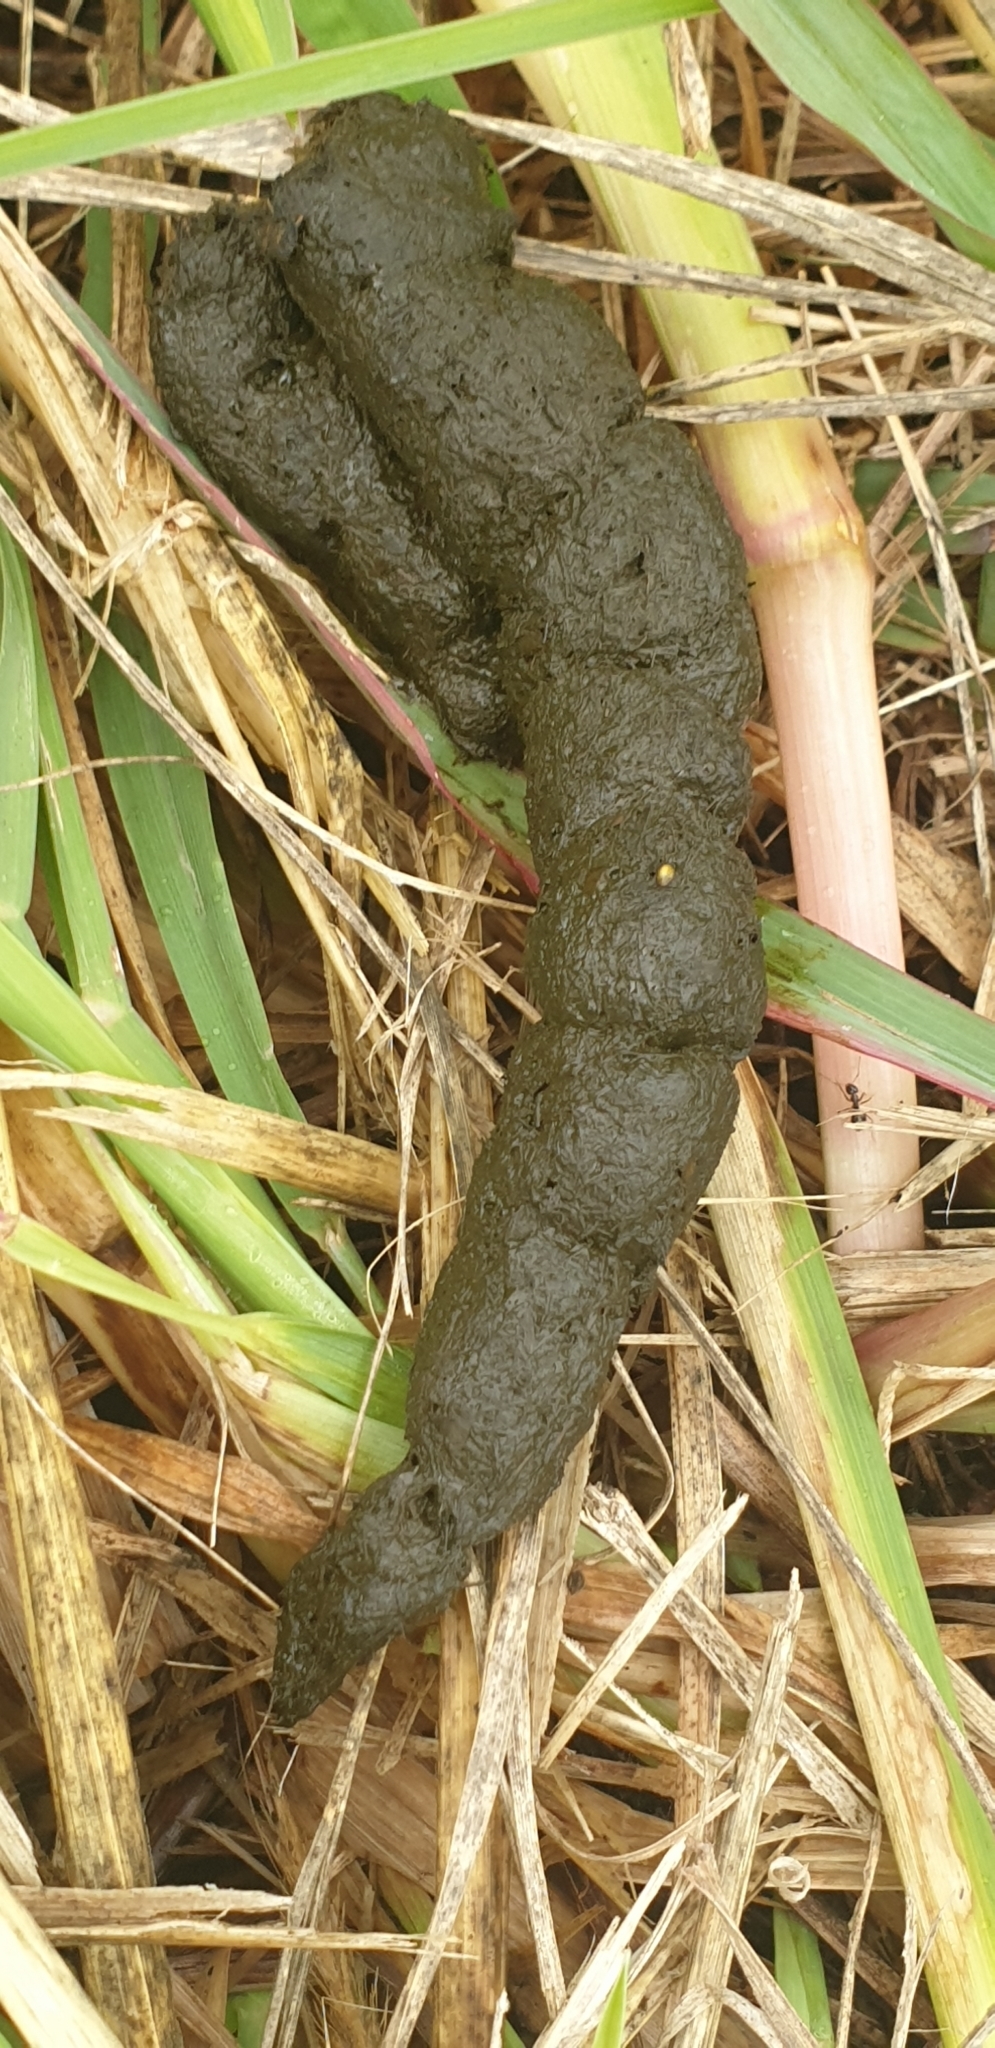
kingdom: Animalia
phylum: Chordata
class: Mammalia
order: Carnivora
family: Canidae
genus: Vulpes
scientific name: Vulpes vulpes
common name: Red fox
